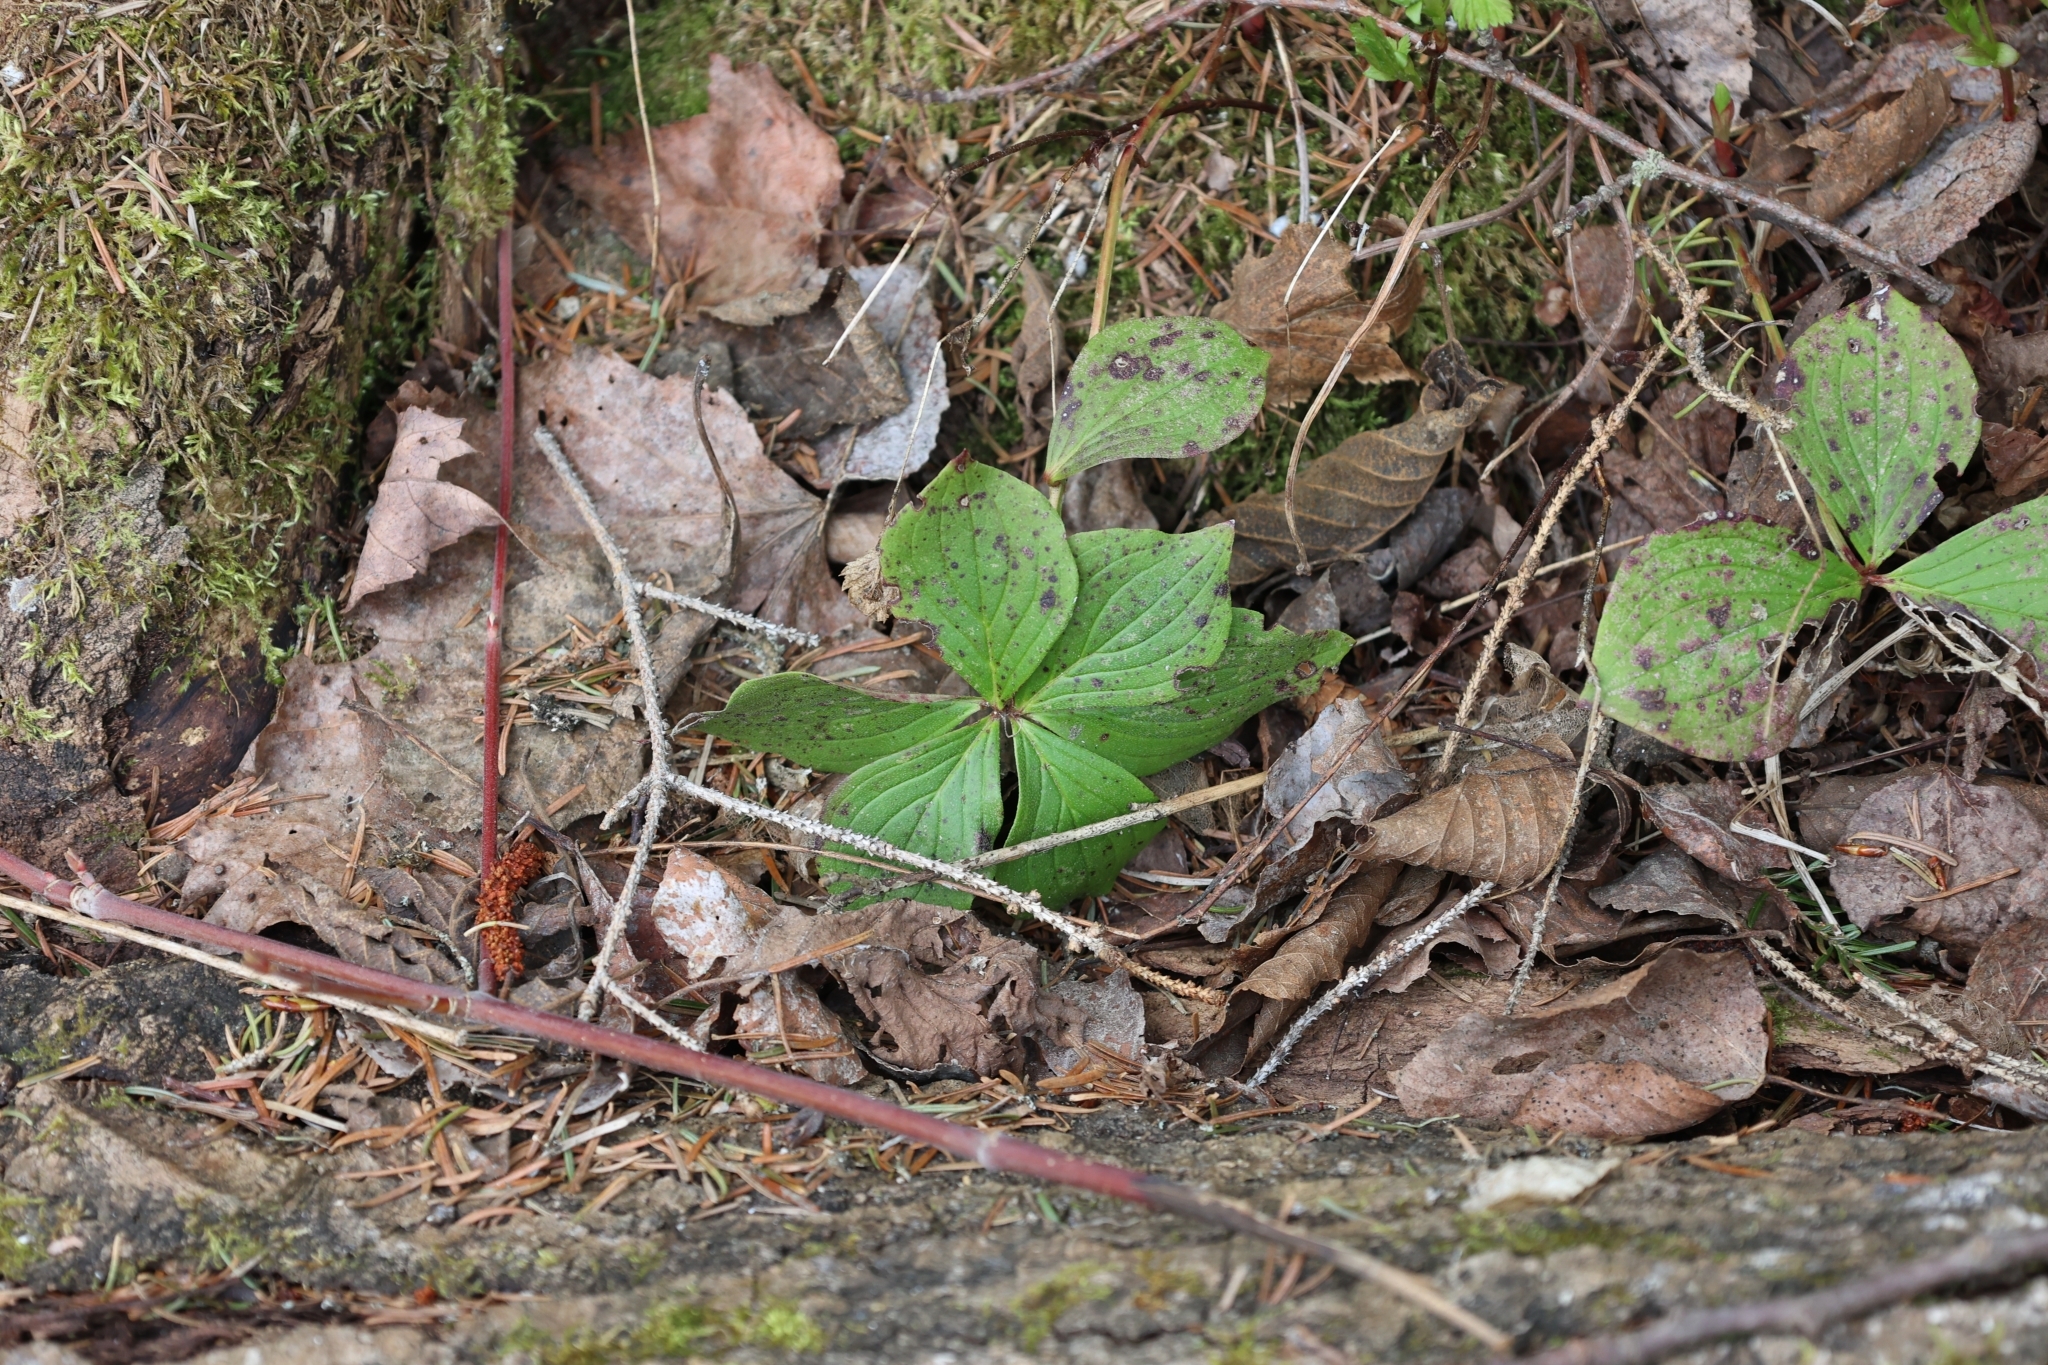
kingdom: Plantae
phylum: Tracheophyta
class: Magnoliopsida
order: Cornales
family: Cornaceae
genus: Cornus
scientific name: Cornus canadensis
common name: Creeping dogwood
